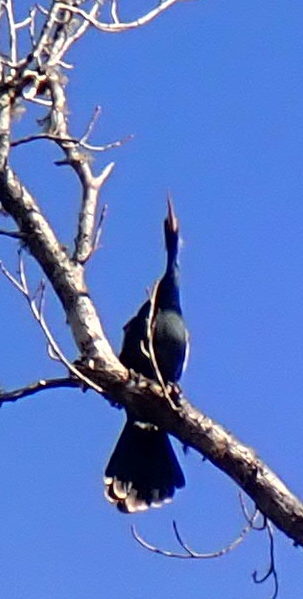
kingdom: Animalia
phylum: Chordata
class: Aves
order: Suliformes
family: Anhingidae
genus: Anhinga
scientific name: Anhinga anhinga
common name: Anhinga
